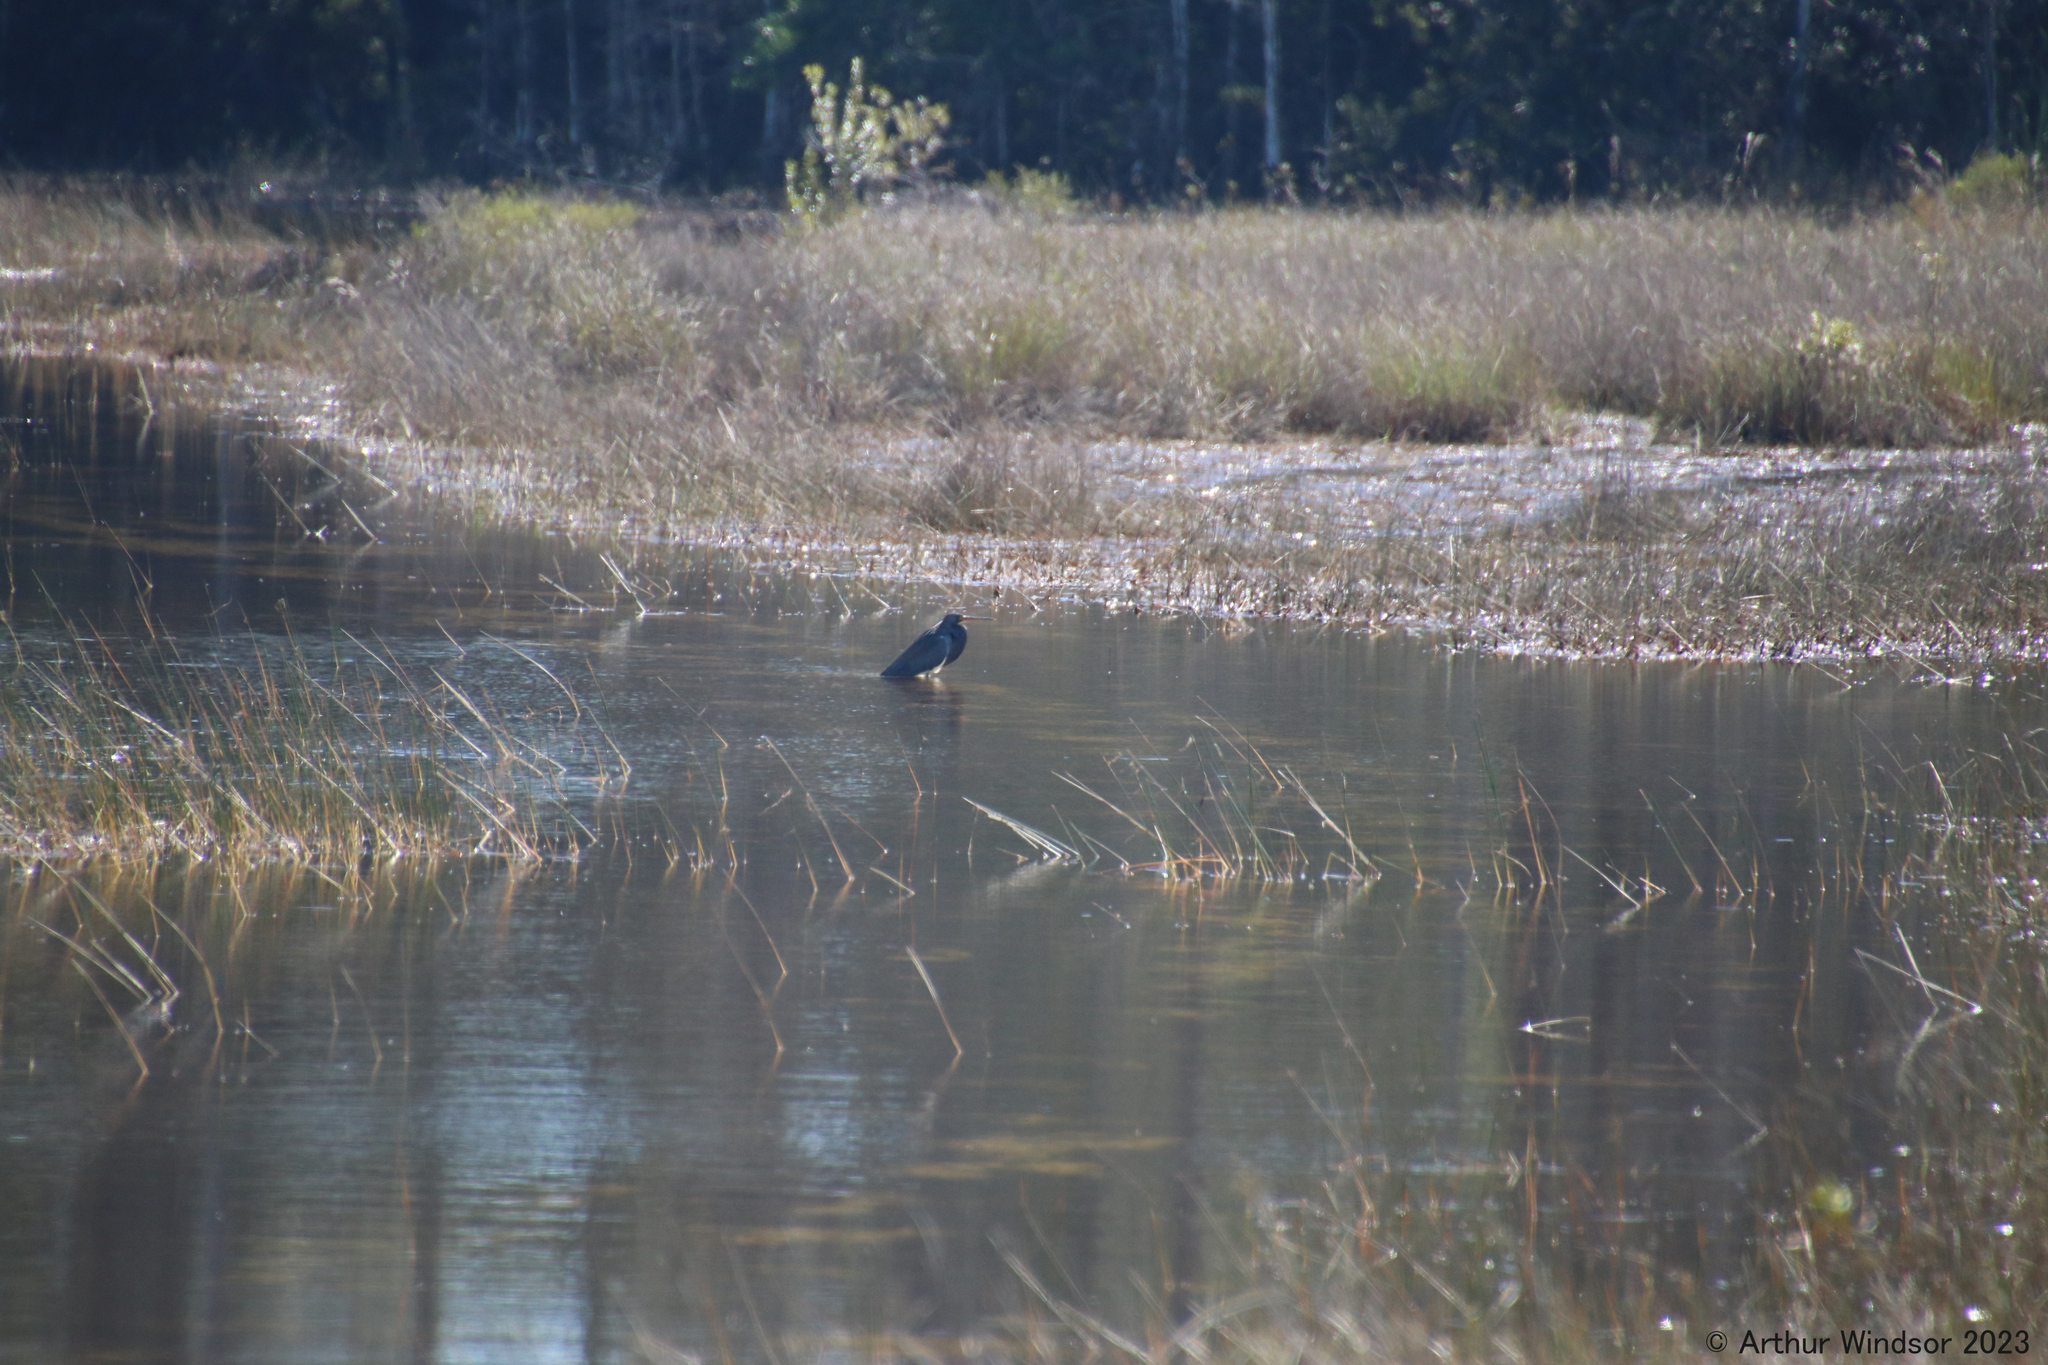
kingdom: Animalia
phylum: Chordata
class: Aves
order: Pelecaniformes
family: Ardeidae
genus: Egretta
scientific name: Egretta tricolor
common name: Tricolored heron
